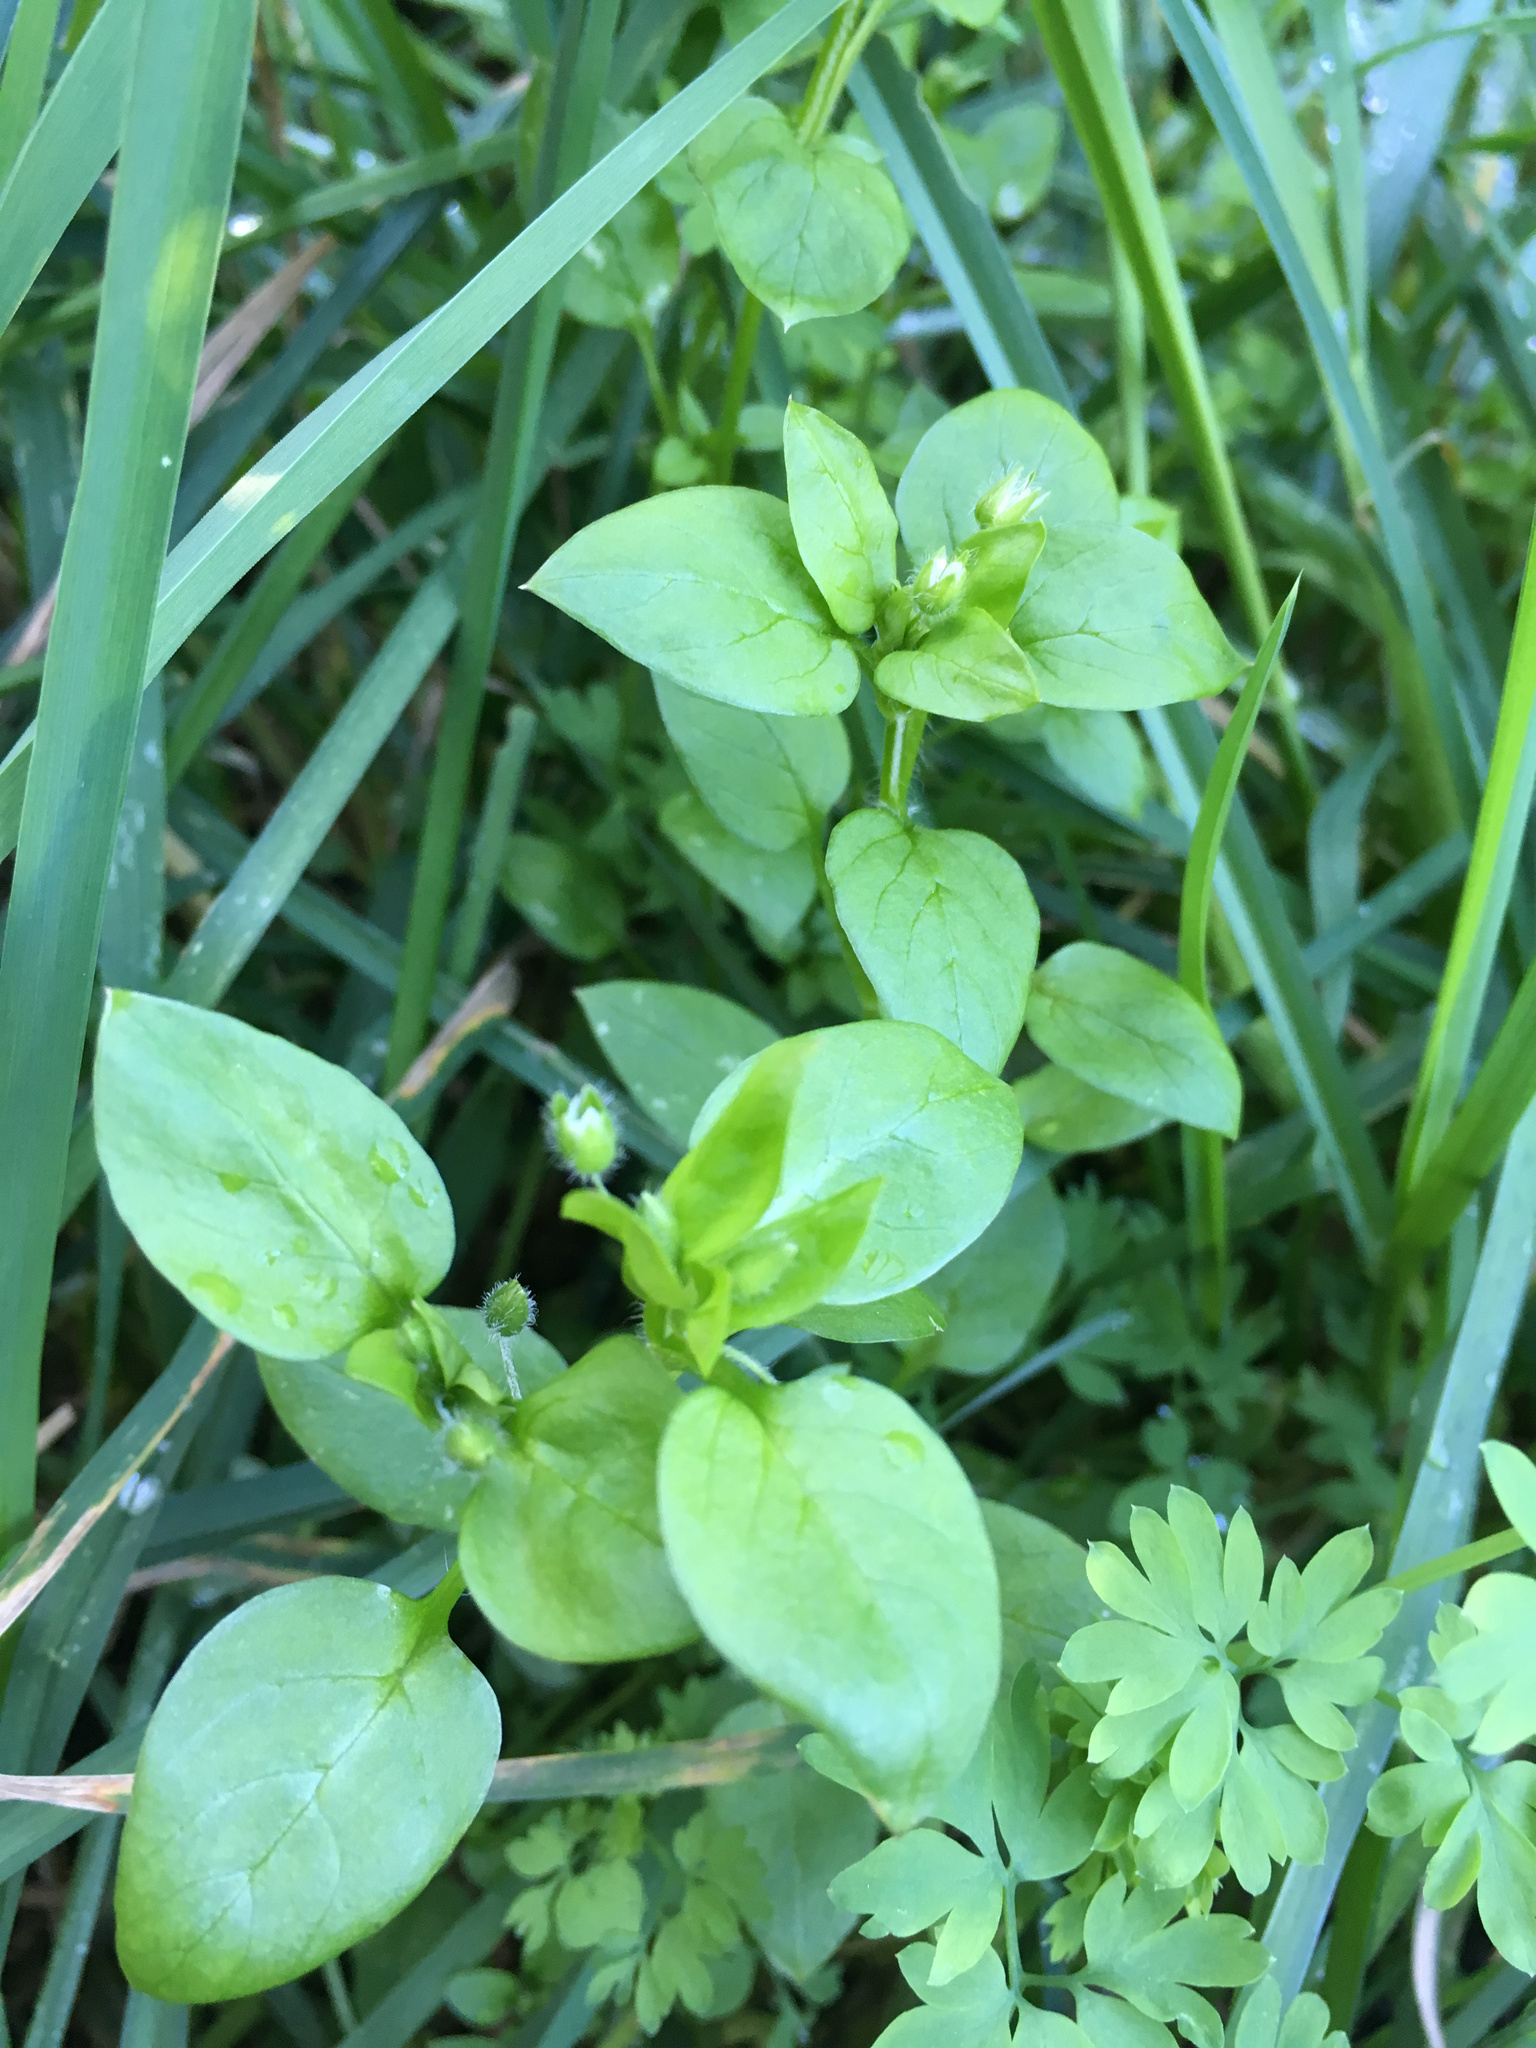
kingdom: Plantae
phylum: Tracheophyta
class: Magnoliopsida
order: Caryophyllales
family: Caryophyllaceae
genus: Stellaria
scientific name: Stellaria media
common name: Common chickweed
